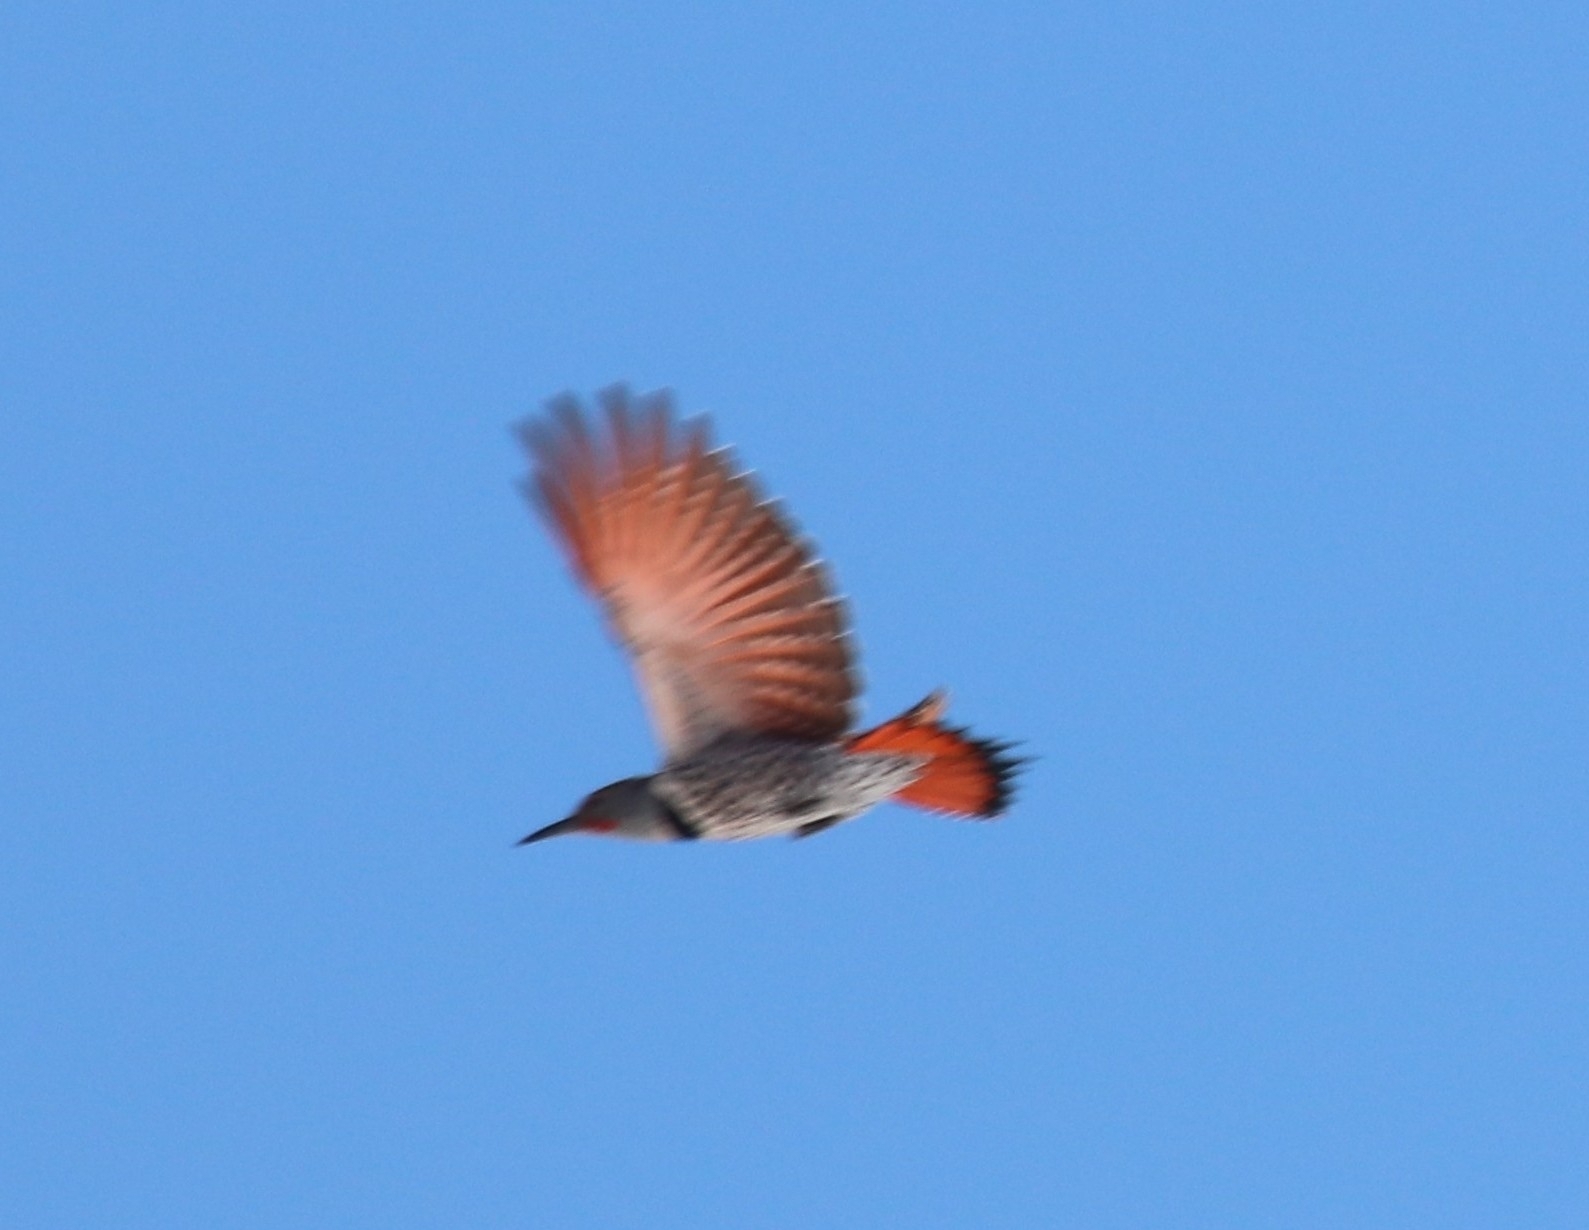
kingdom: Animalia
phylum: Chordata
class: Aves
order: Piciformes
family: Picidae
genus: Colaptes
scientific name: Colaptes auratus
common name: Northern flicker
